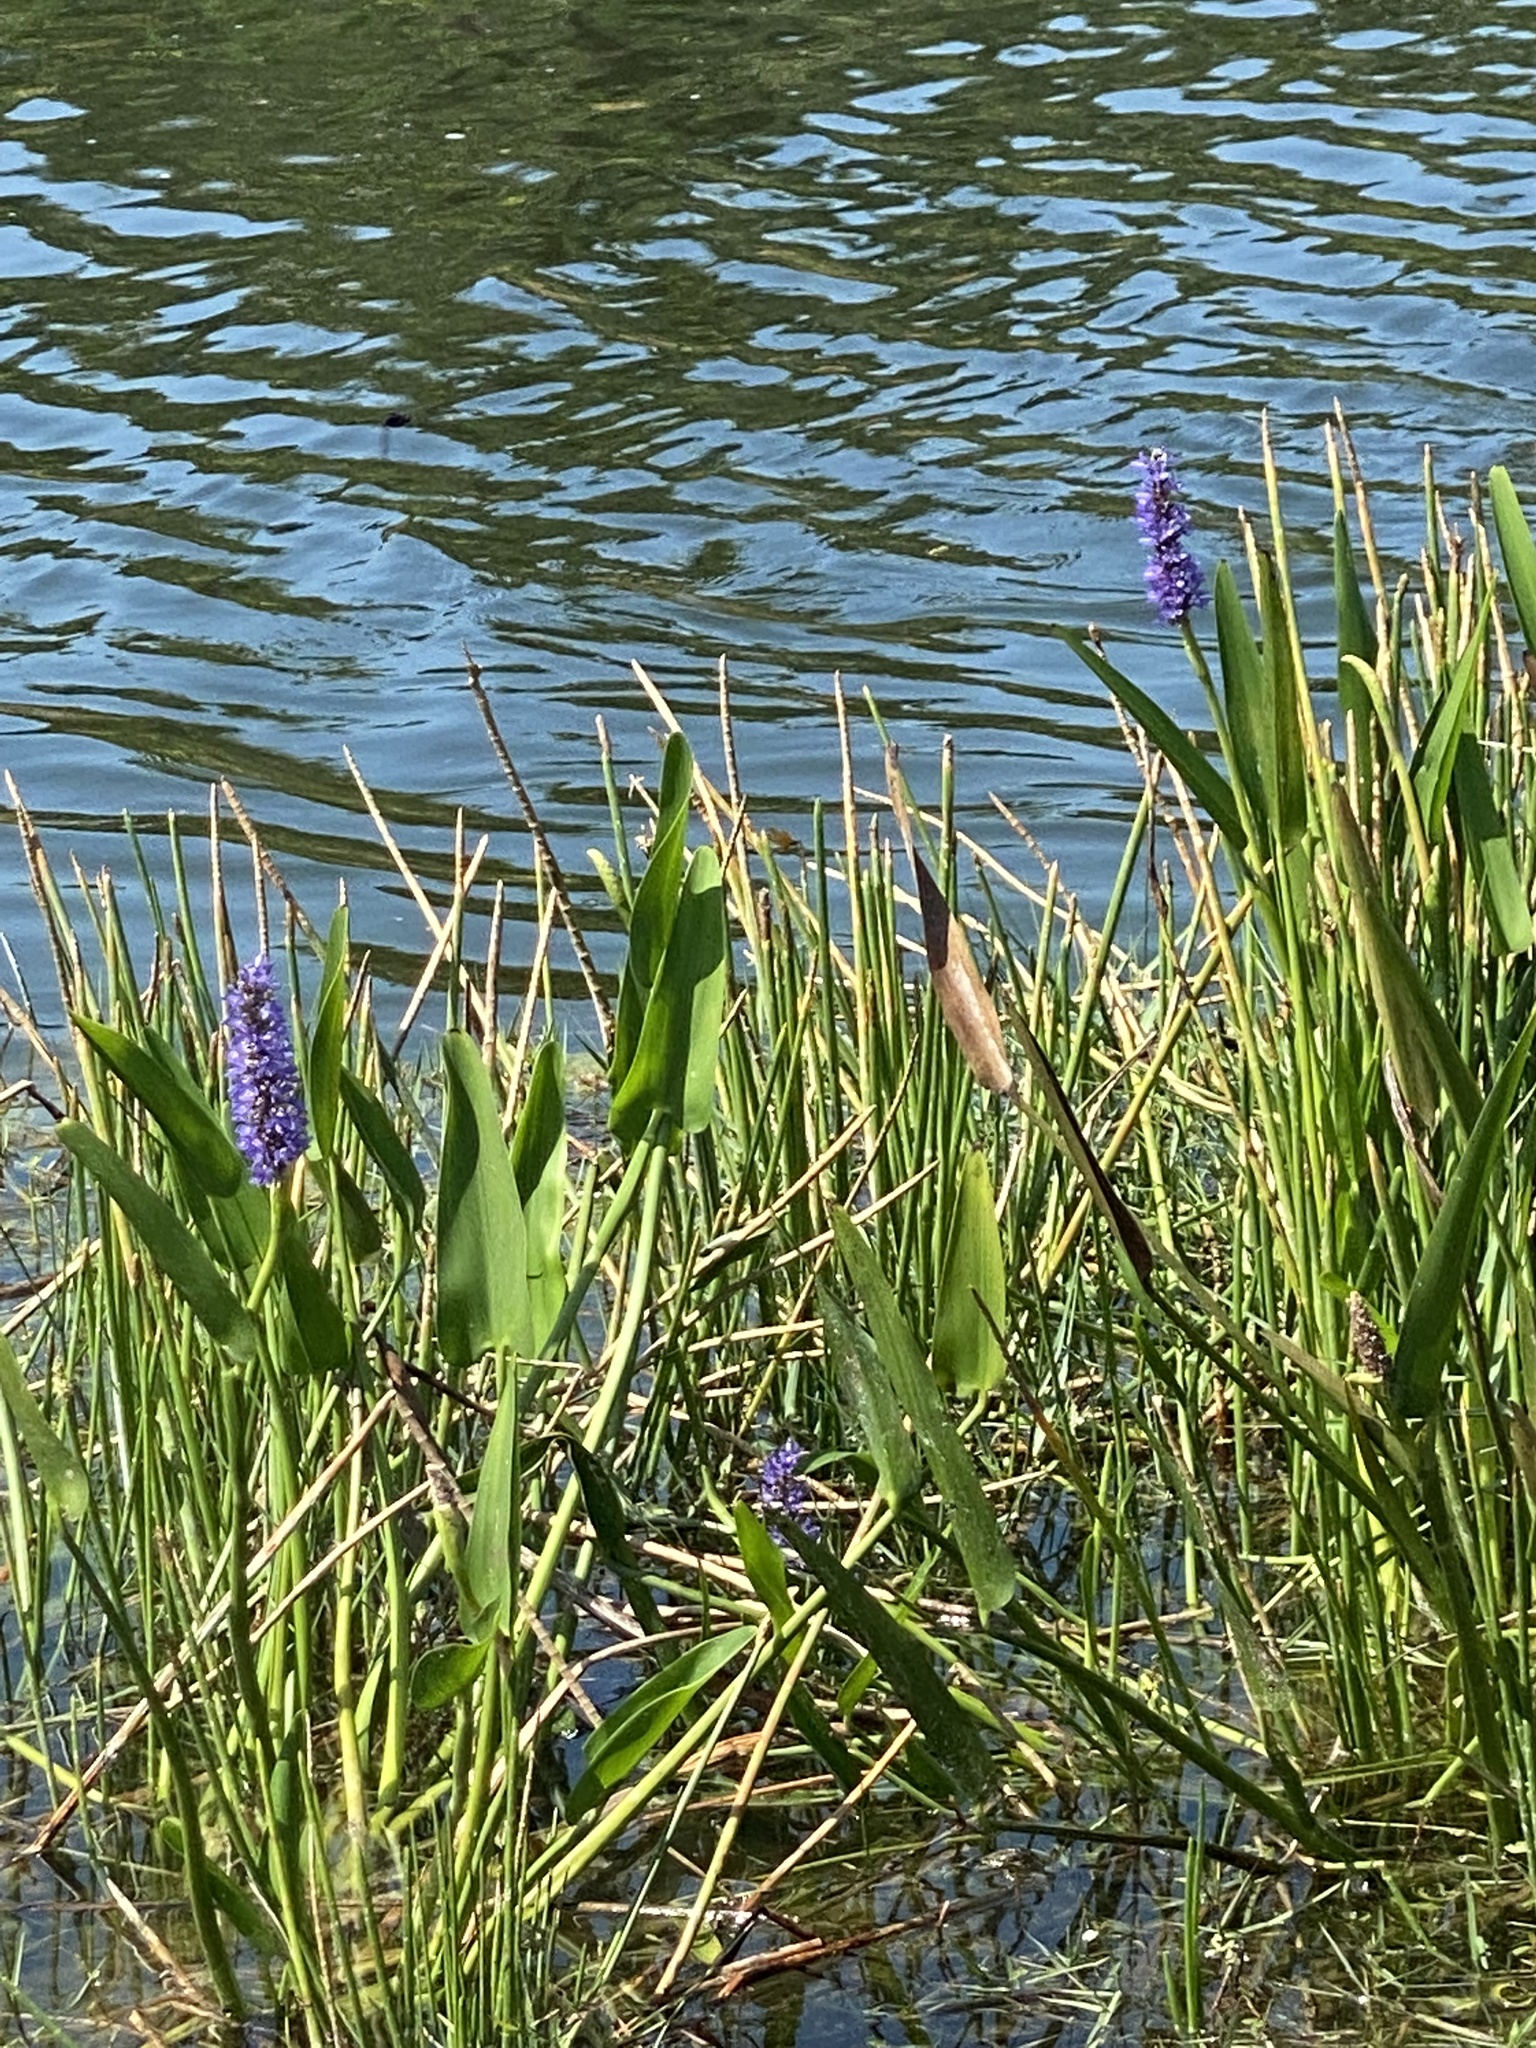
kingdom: Plantae
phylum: Tracheophyta
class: Liliopsida
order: Commelinales
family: Pontederiaceae
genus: Pontederia
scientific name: Pontederia cordata
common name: Pickerelweed
